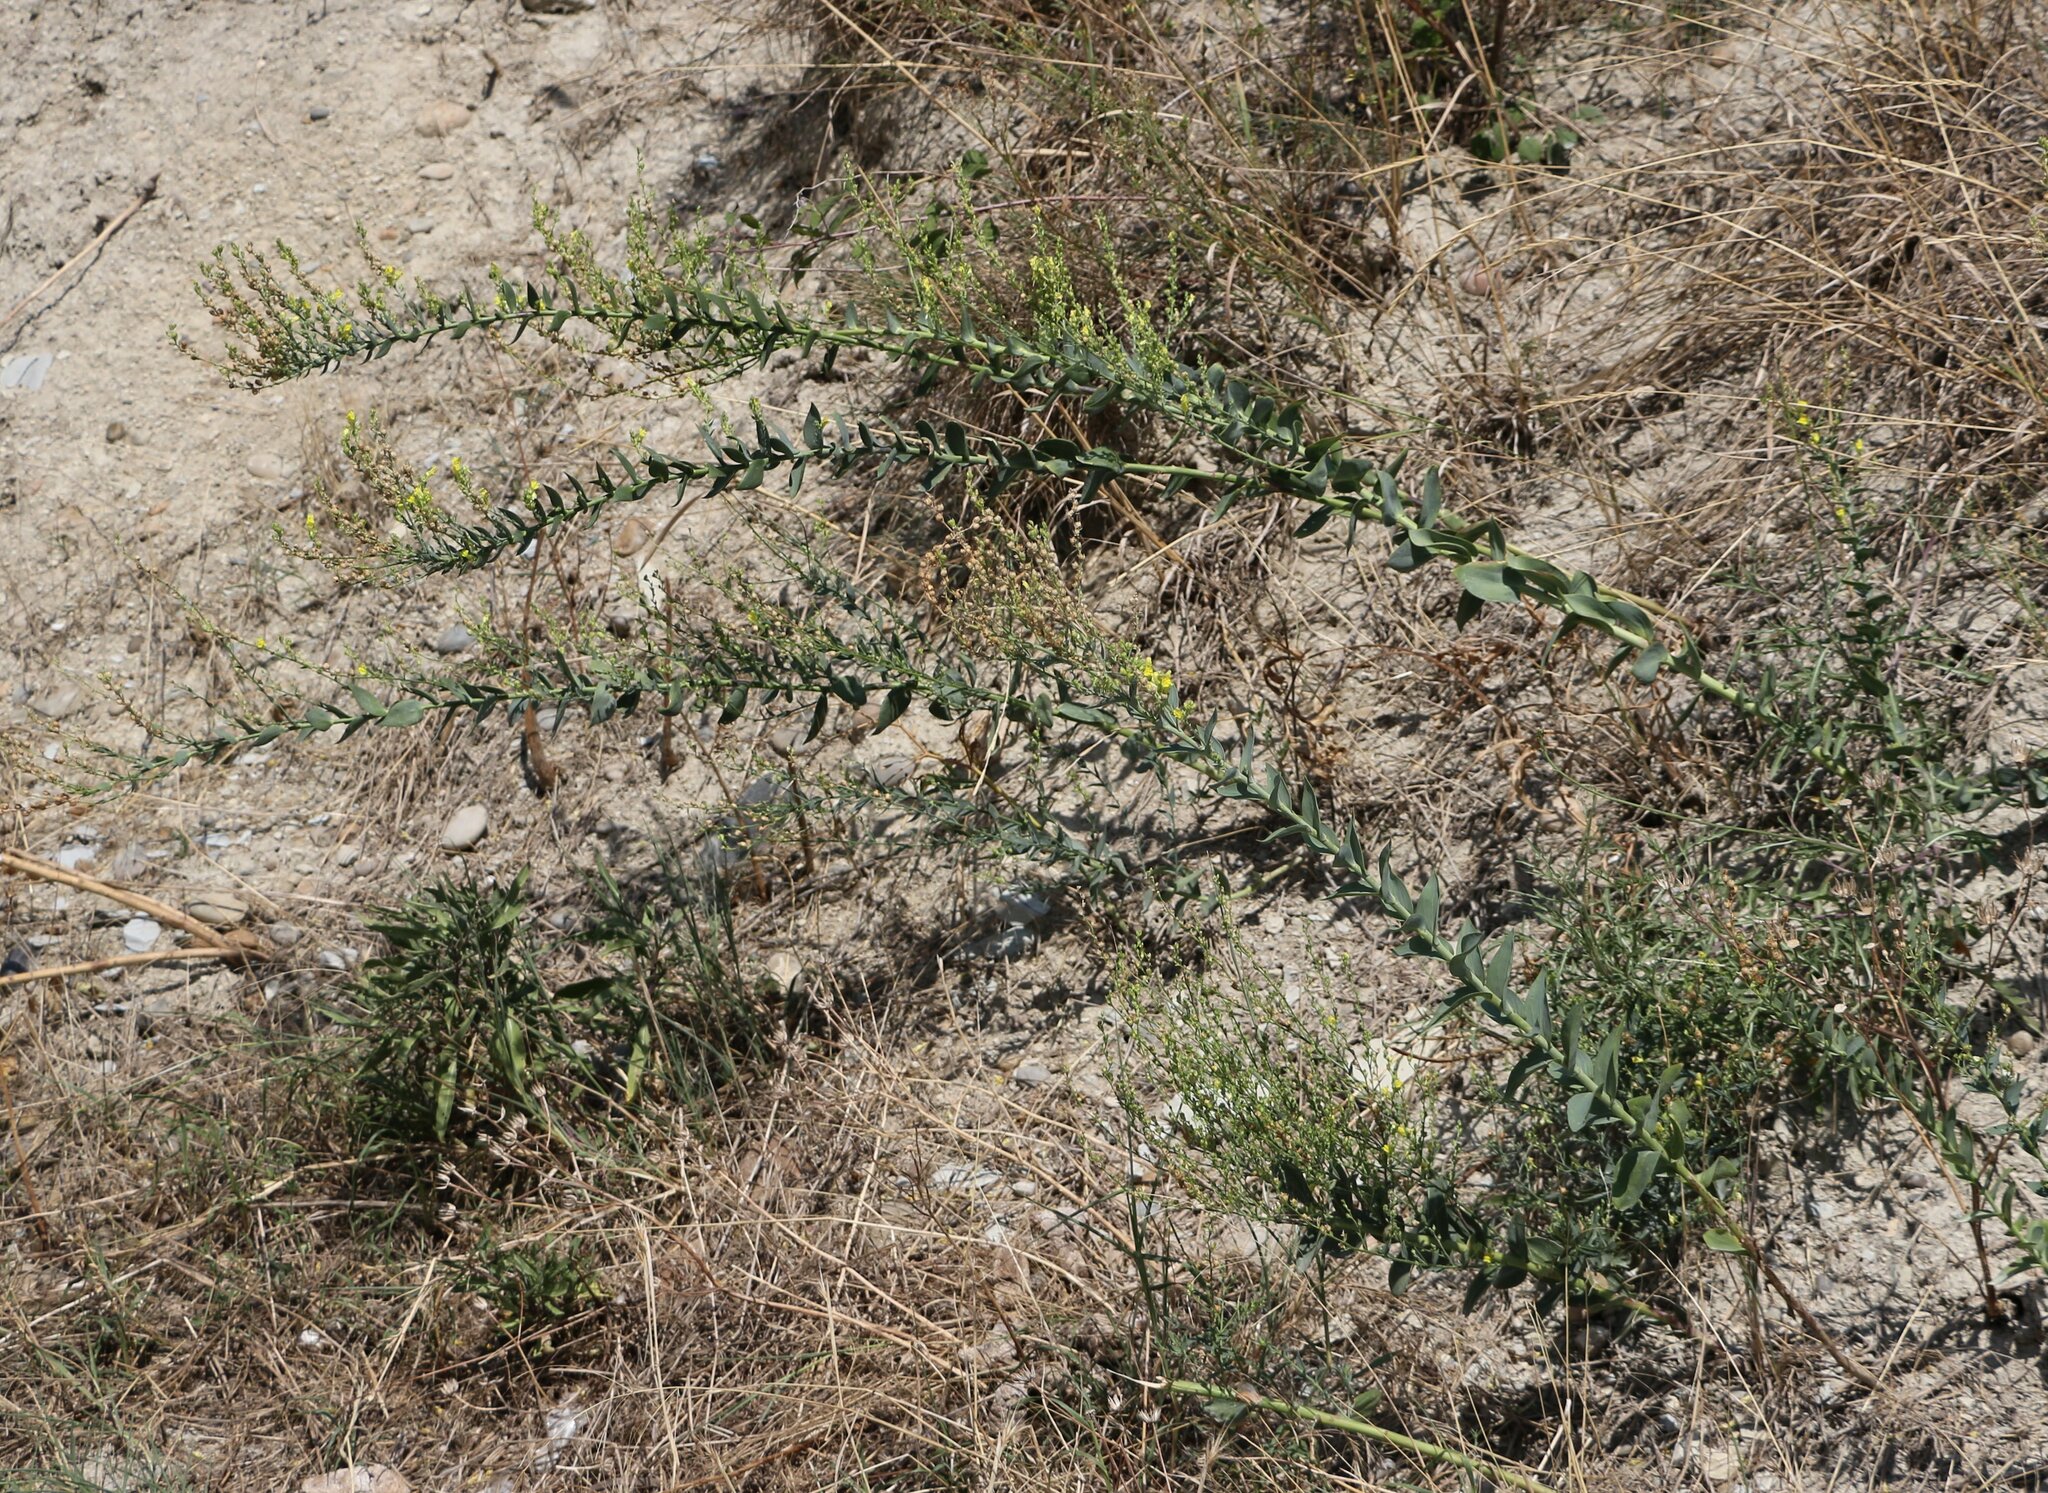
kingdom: Plantae
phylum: Tracheophyta
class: Magnoliopsida
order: Lamiales
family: Plantaginaceae
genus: Linaria
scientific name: Linaria genistifolia
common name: Broomleaf toadflax
